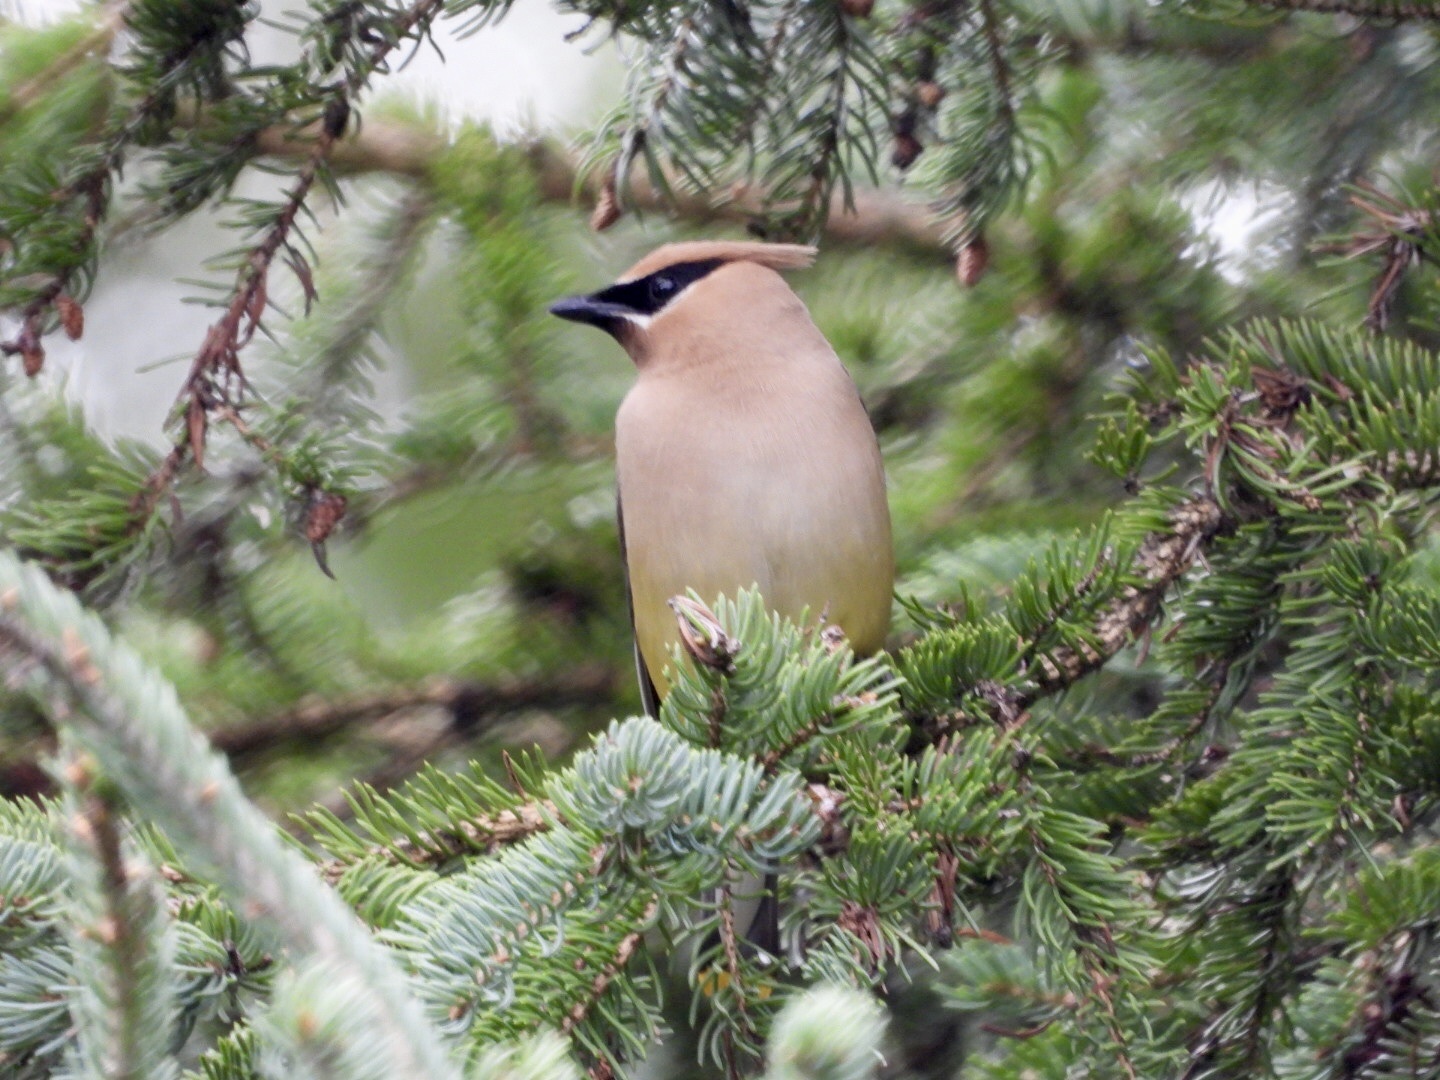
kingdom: Animalia
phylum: Chordata
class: Aves
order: Passeriformes
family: Bombycillidae
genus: Bombycilla
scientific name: Bombycilla cedrorum
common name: Cedar waxwing
